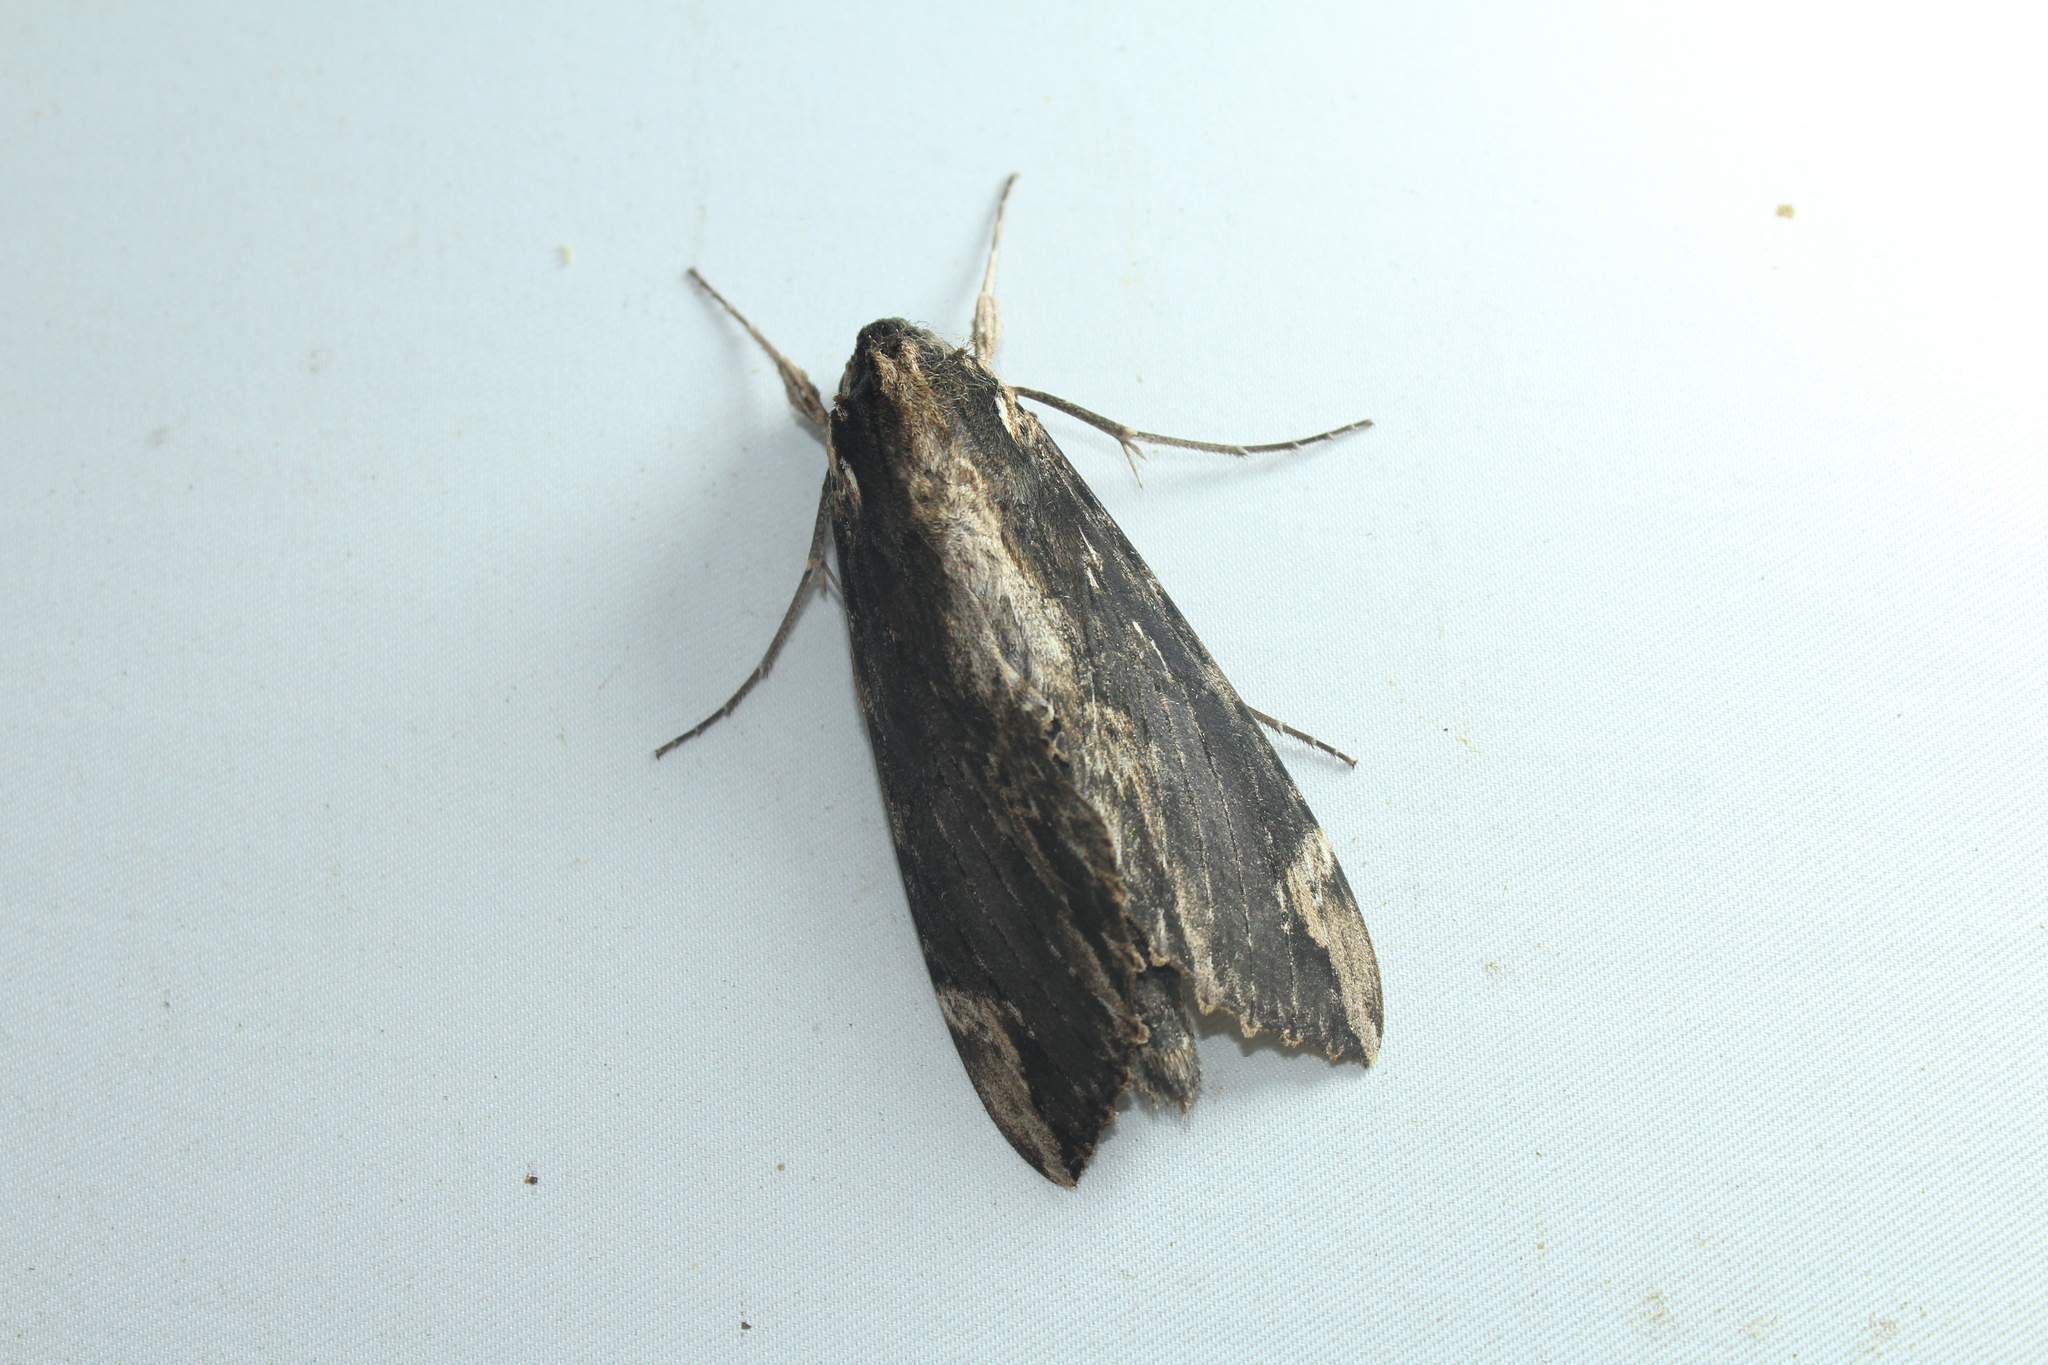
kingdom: Animalia
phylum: Arthropoda
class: Insecta
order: Lepidoptera
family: Sphingidae
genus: Erinnyis
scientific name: Erinnyis lassauxi
